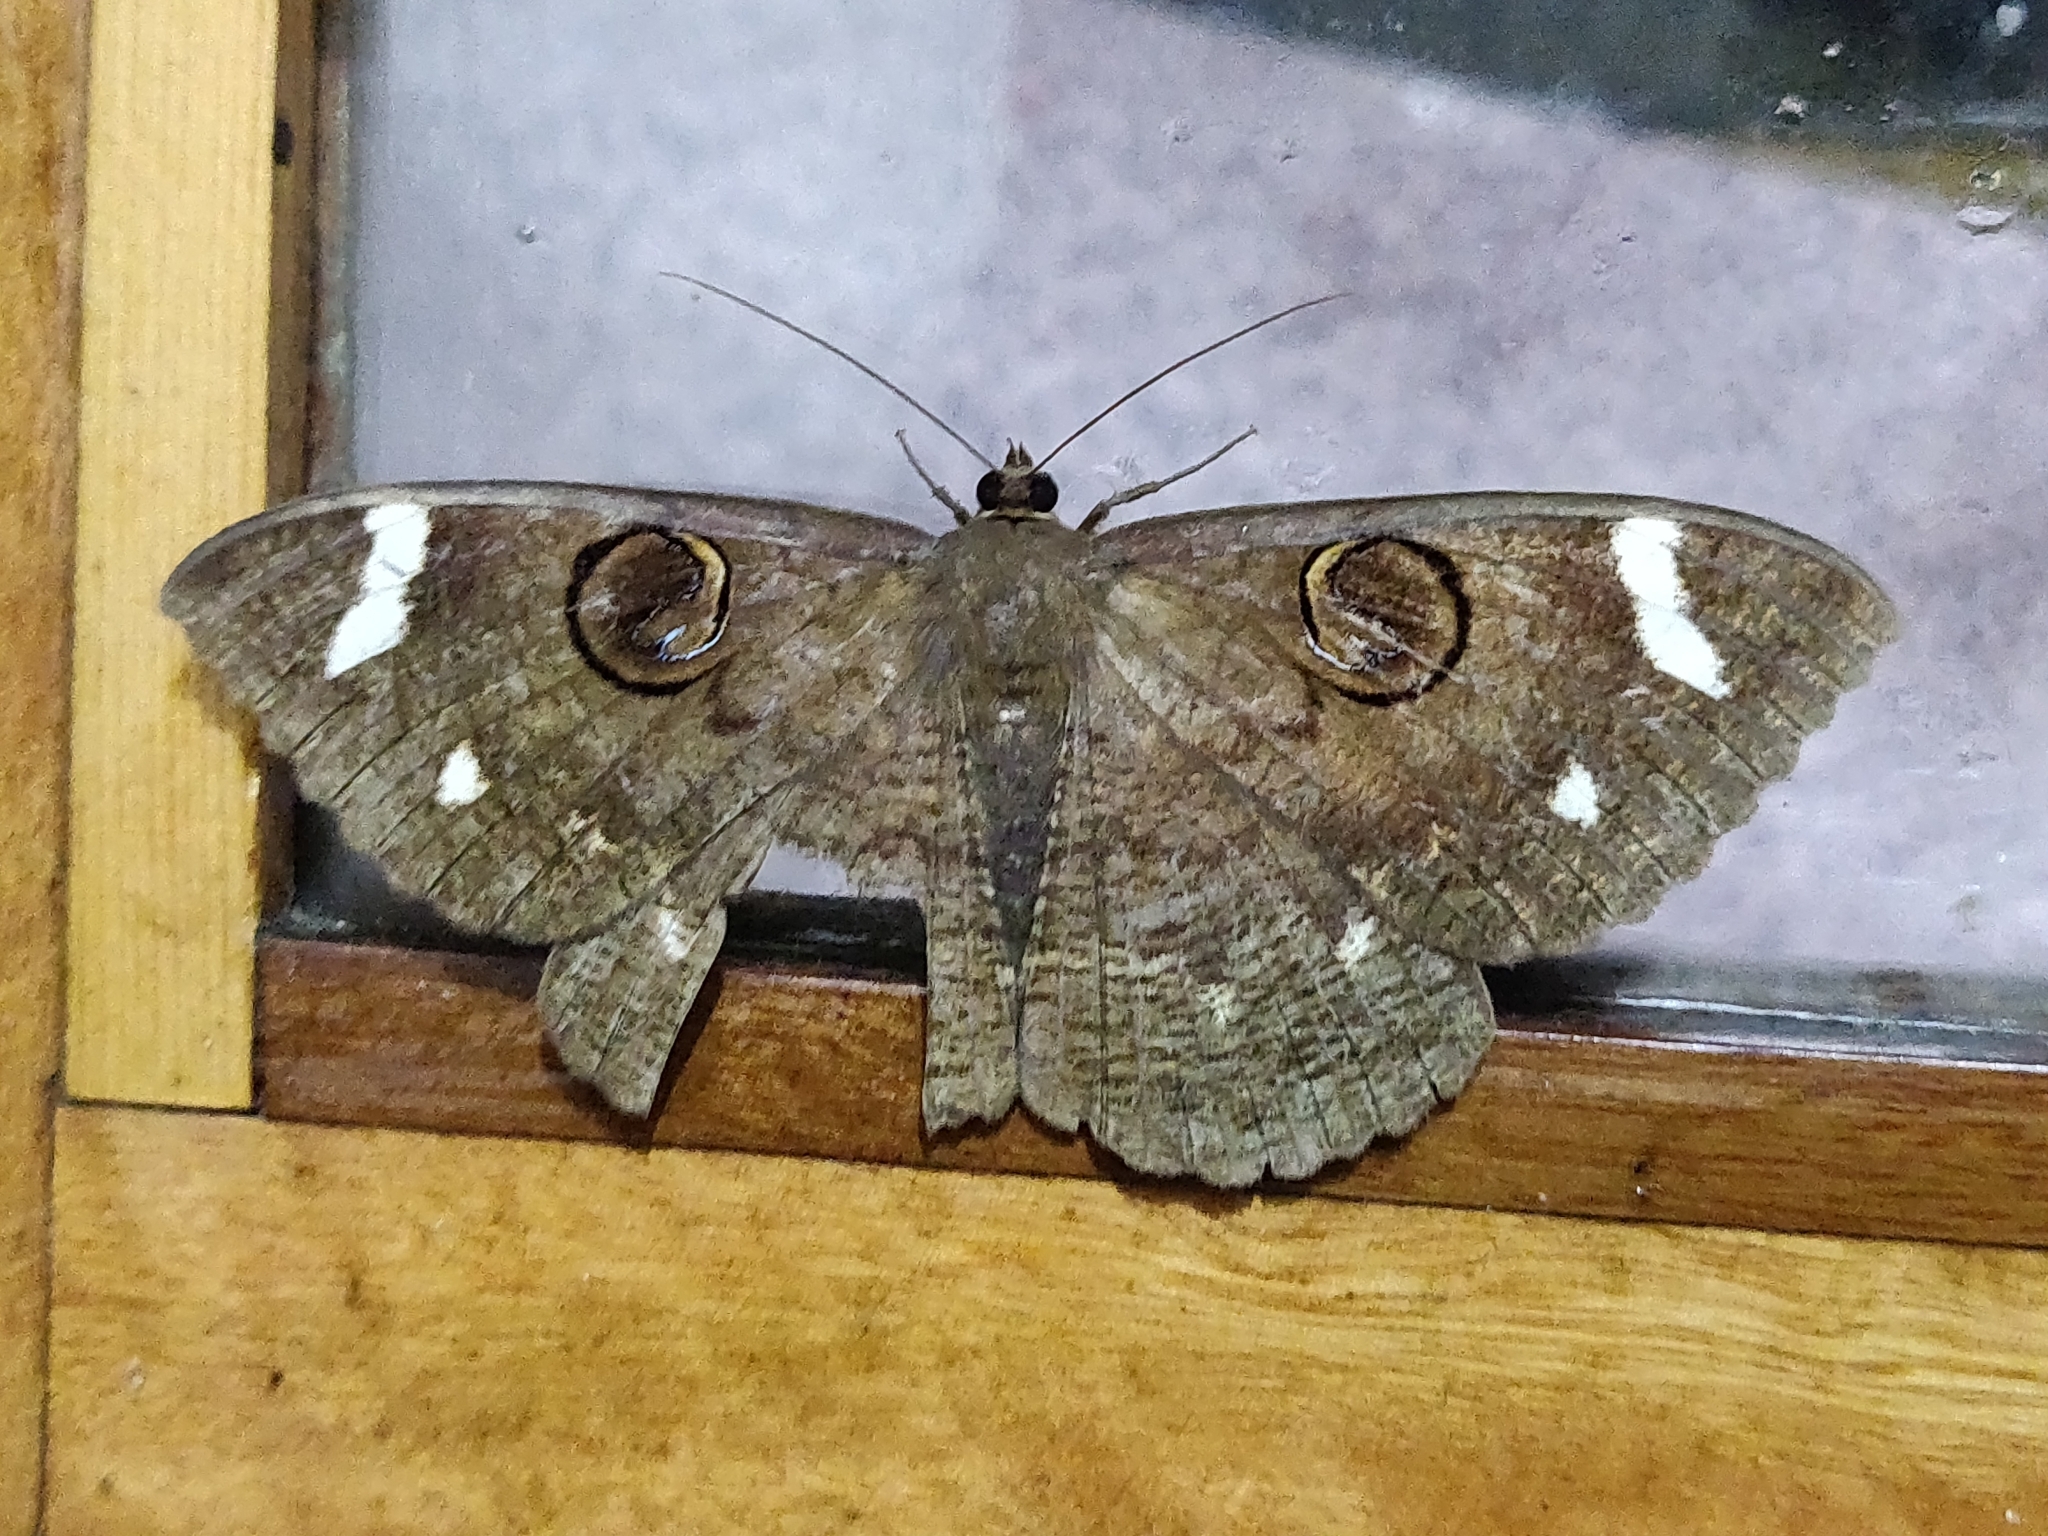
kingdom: Animalia
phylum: Arthropoda
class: Insecta
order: Lepidoptera
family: Erebidae
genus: Erebus
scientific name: Erebus hieroglyphica
